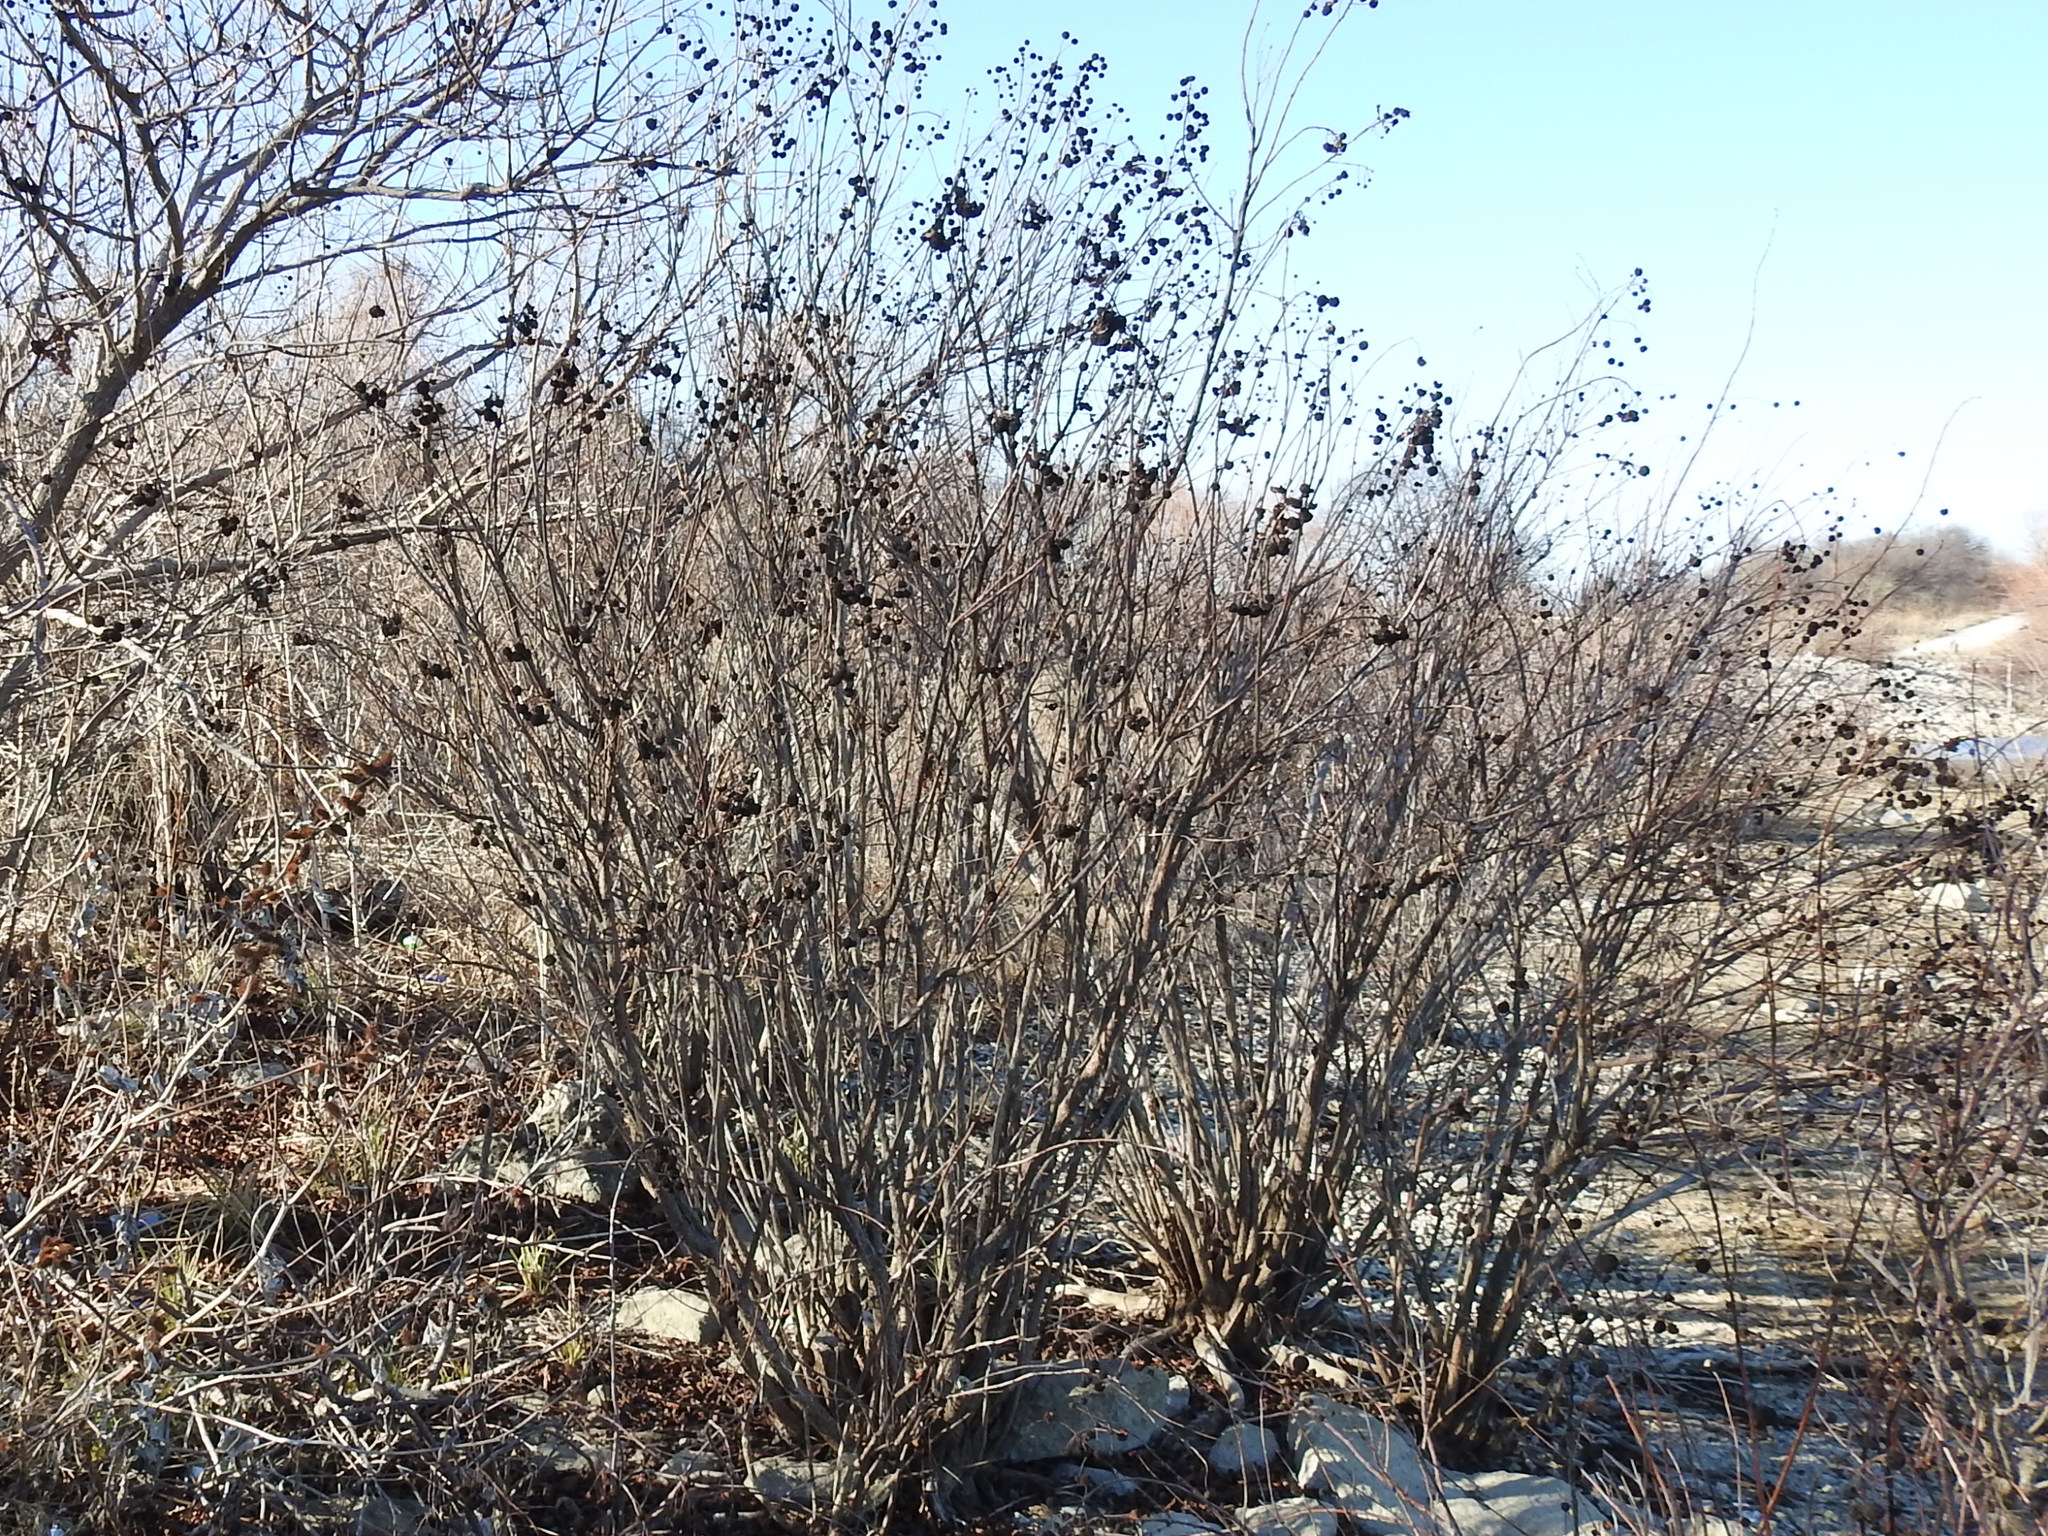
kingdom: Plantae
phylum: Tracheophyta
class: Magnoliopsida
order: Gentianales
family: Rubiaceae
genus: Cephalanthus
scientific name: Cephalanthus occidentalis
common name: Button-willow
